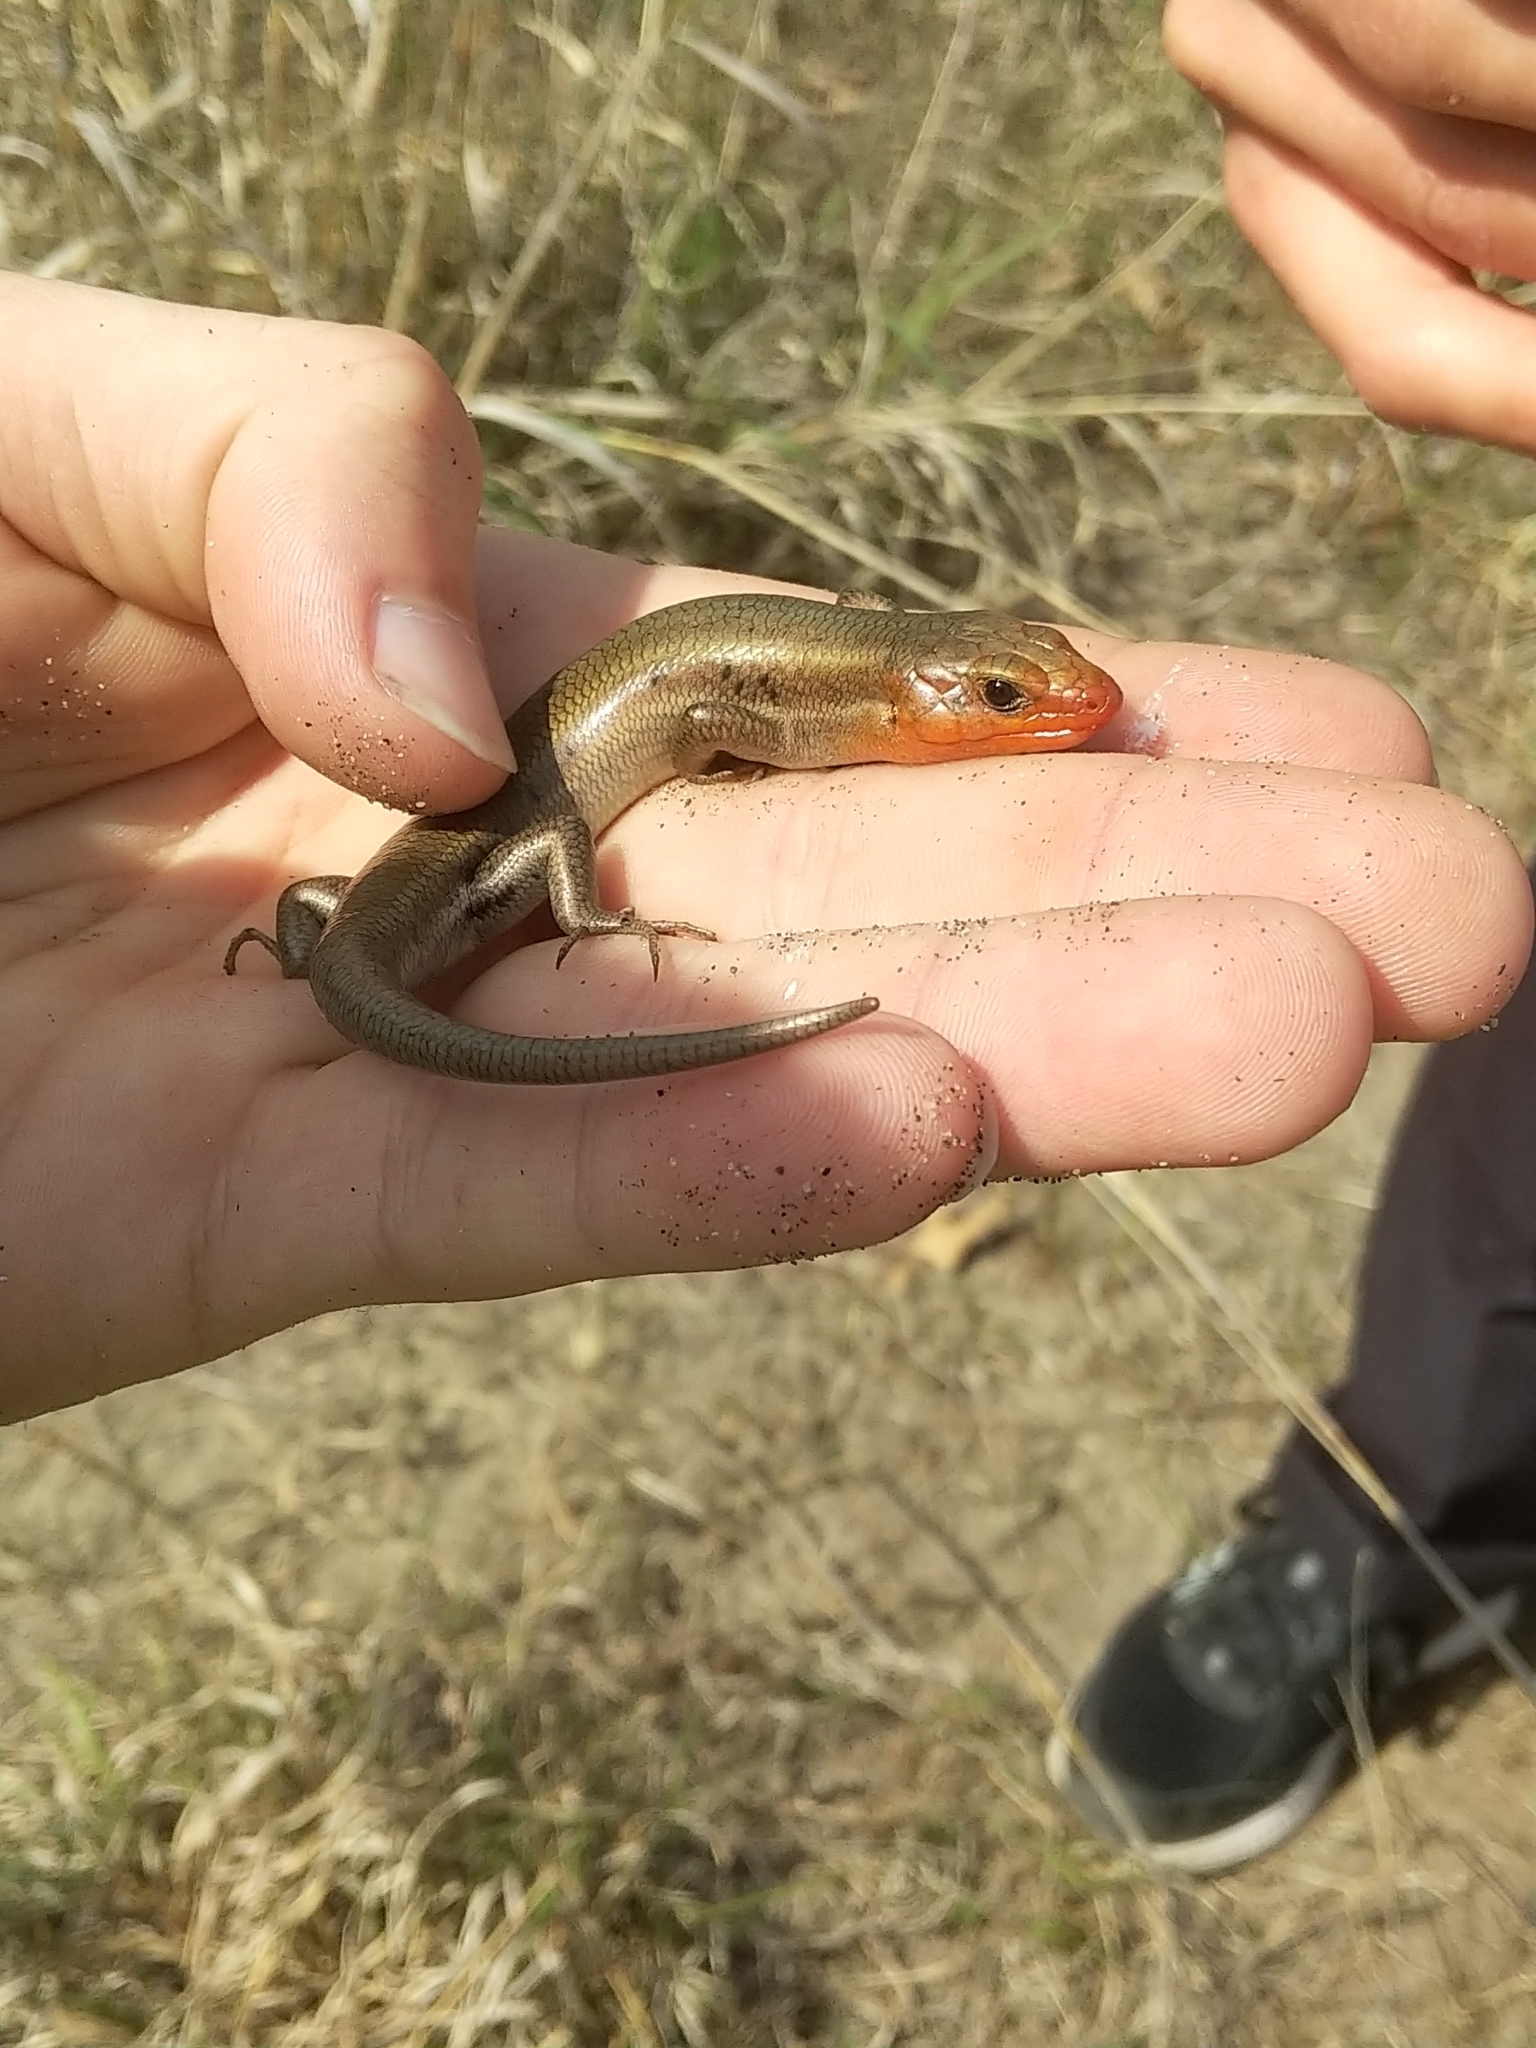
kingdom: Animalia
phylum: Chordata
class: Squamata
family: Scincidae
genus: Plestiodon
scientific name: Plestiodon fasciatus
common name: Five-lined skink
